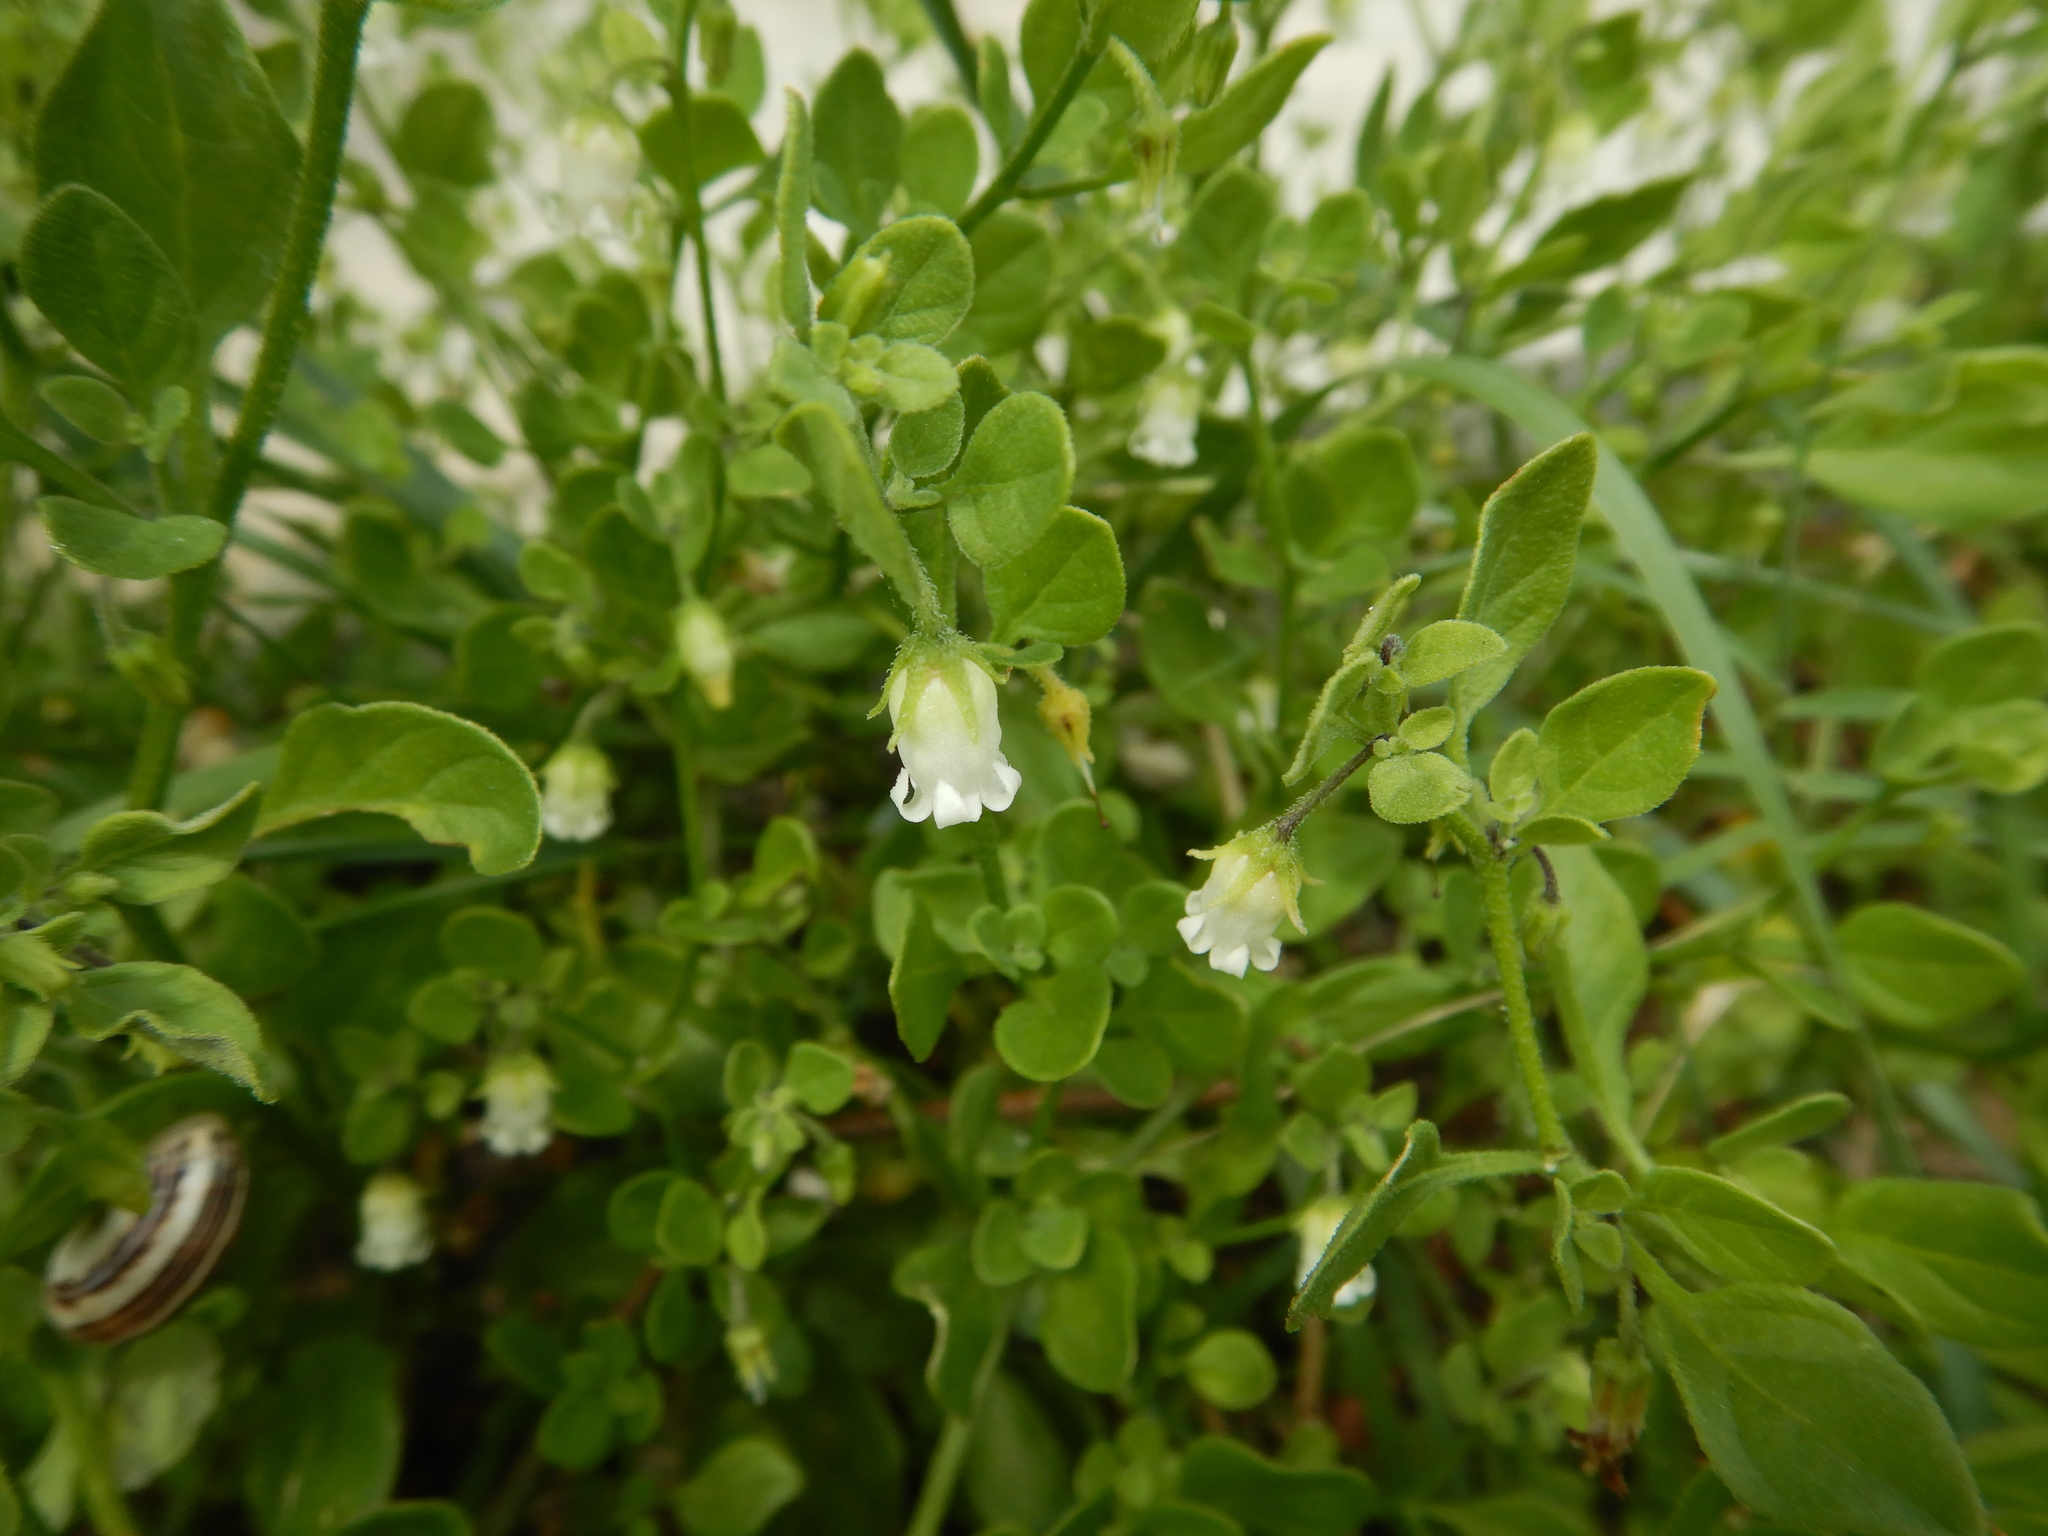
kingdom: Plantae
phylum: Tracheophyta
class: Magnoliopsida
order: Solanales
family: Solanaceae
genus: Salpichroa
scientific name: Salpichroa origanifolia
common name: Lily-of-the-valley-vine
